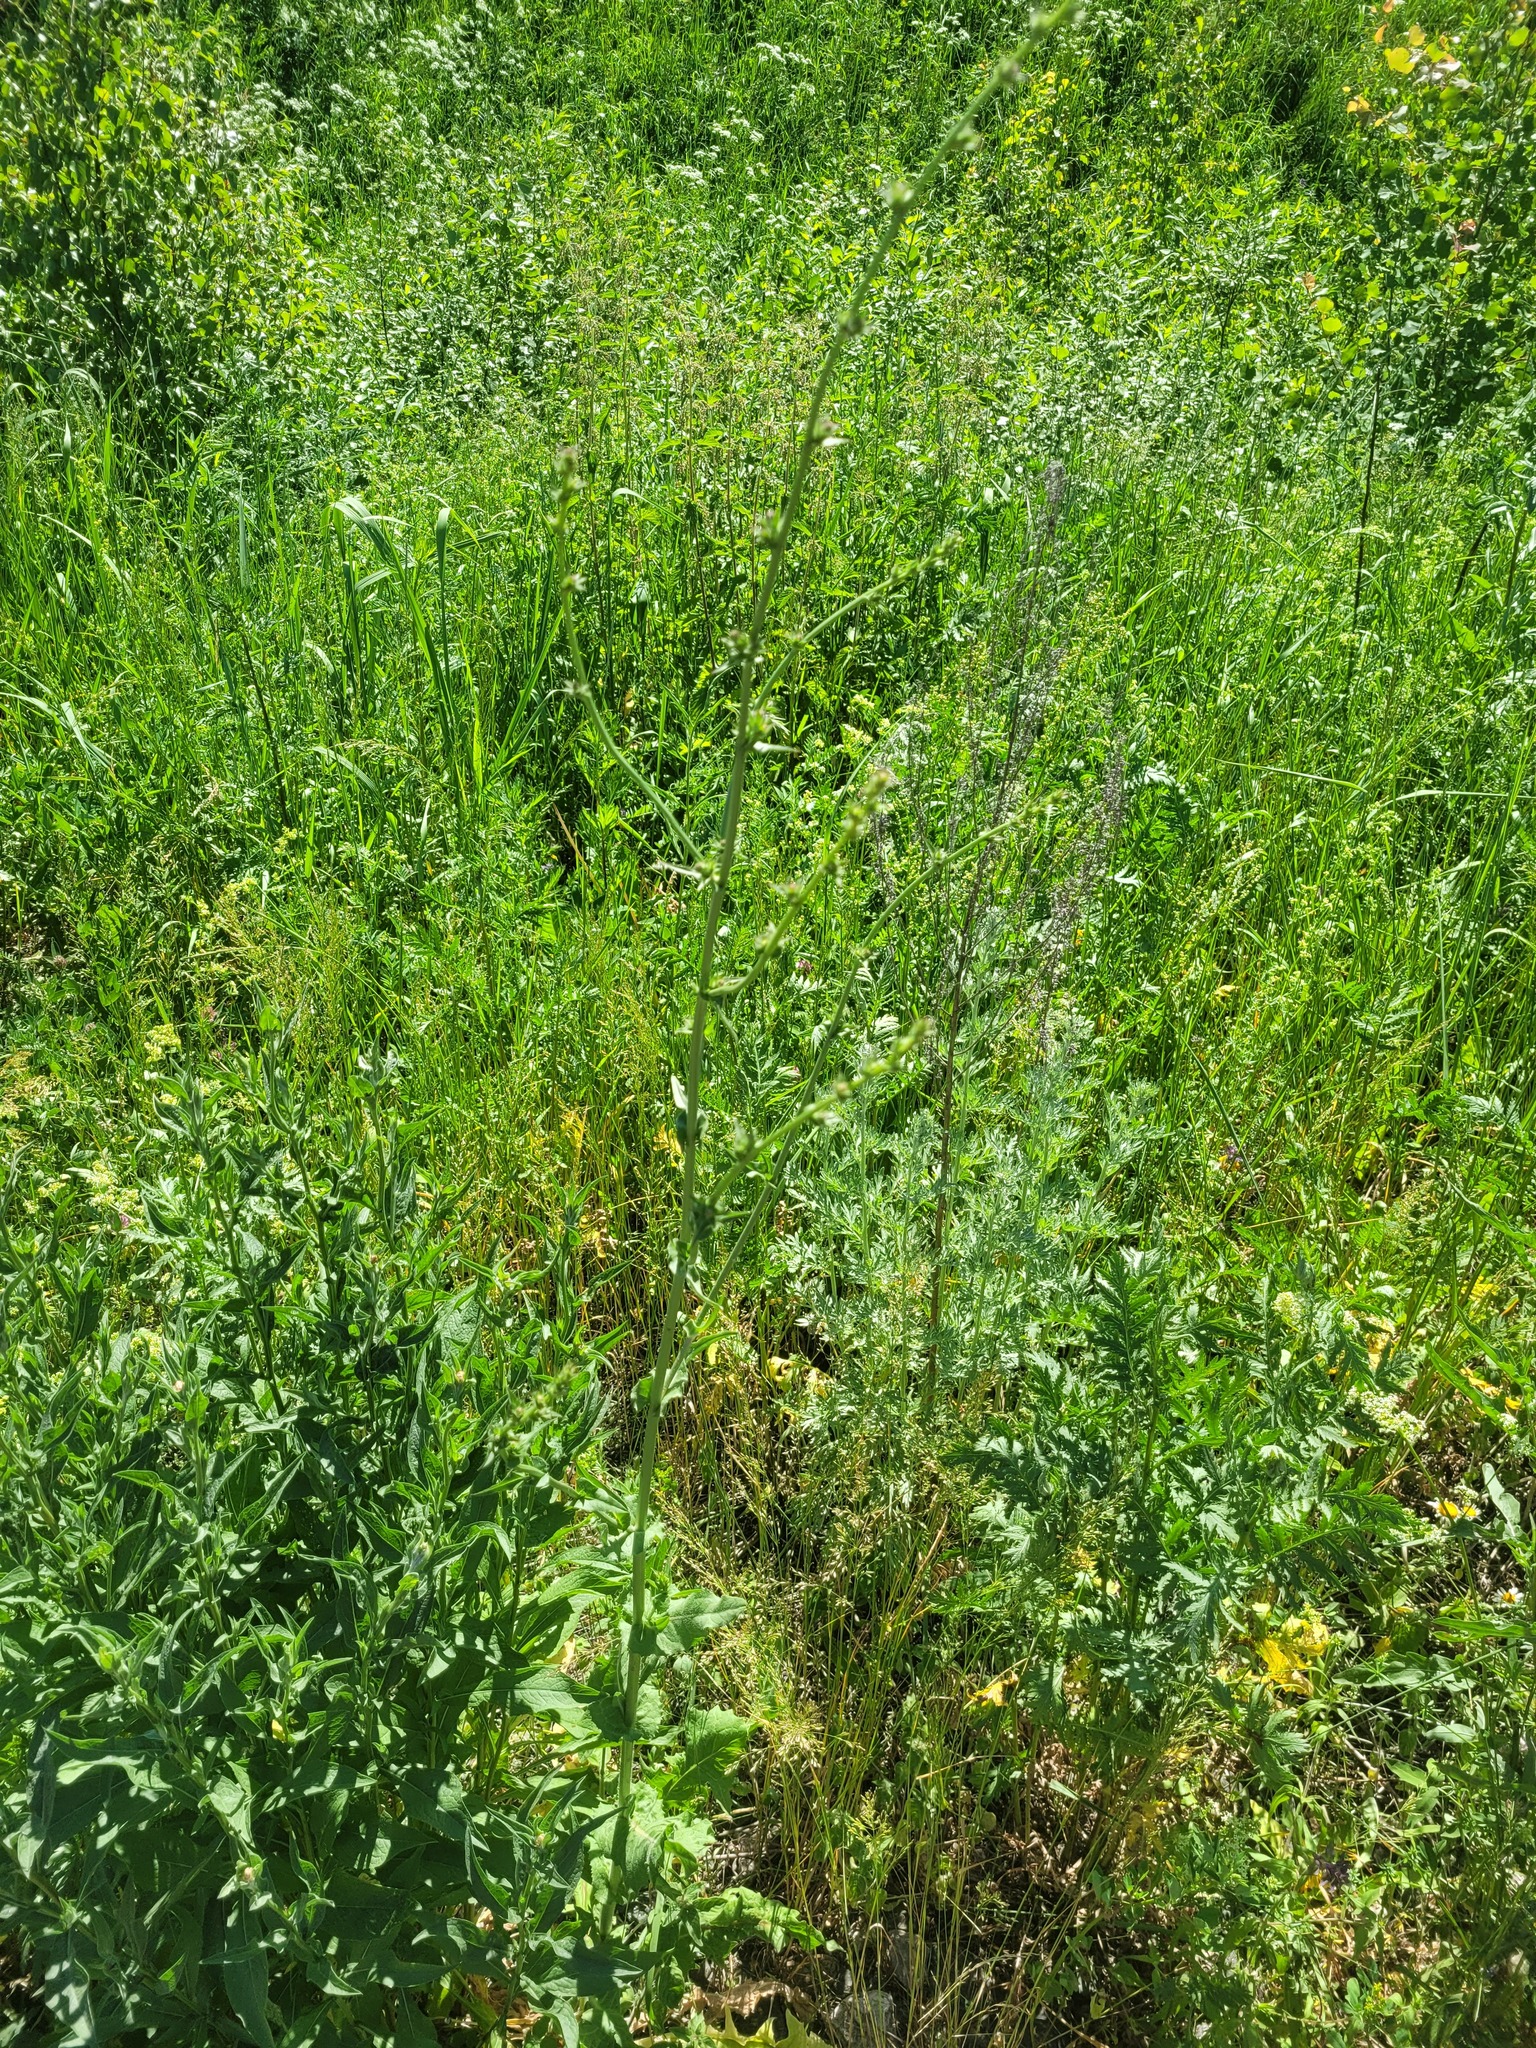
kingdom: Plantae
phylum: Tracheophyta
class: Magnoliopsida
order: Asterales
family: Asteraceae
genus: Cichorium
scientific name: Cichorium intybus
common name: Chicory
